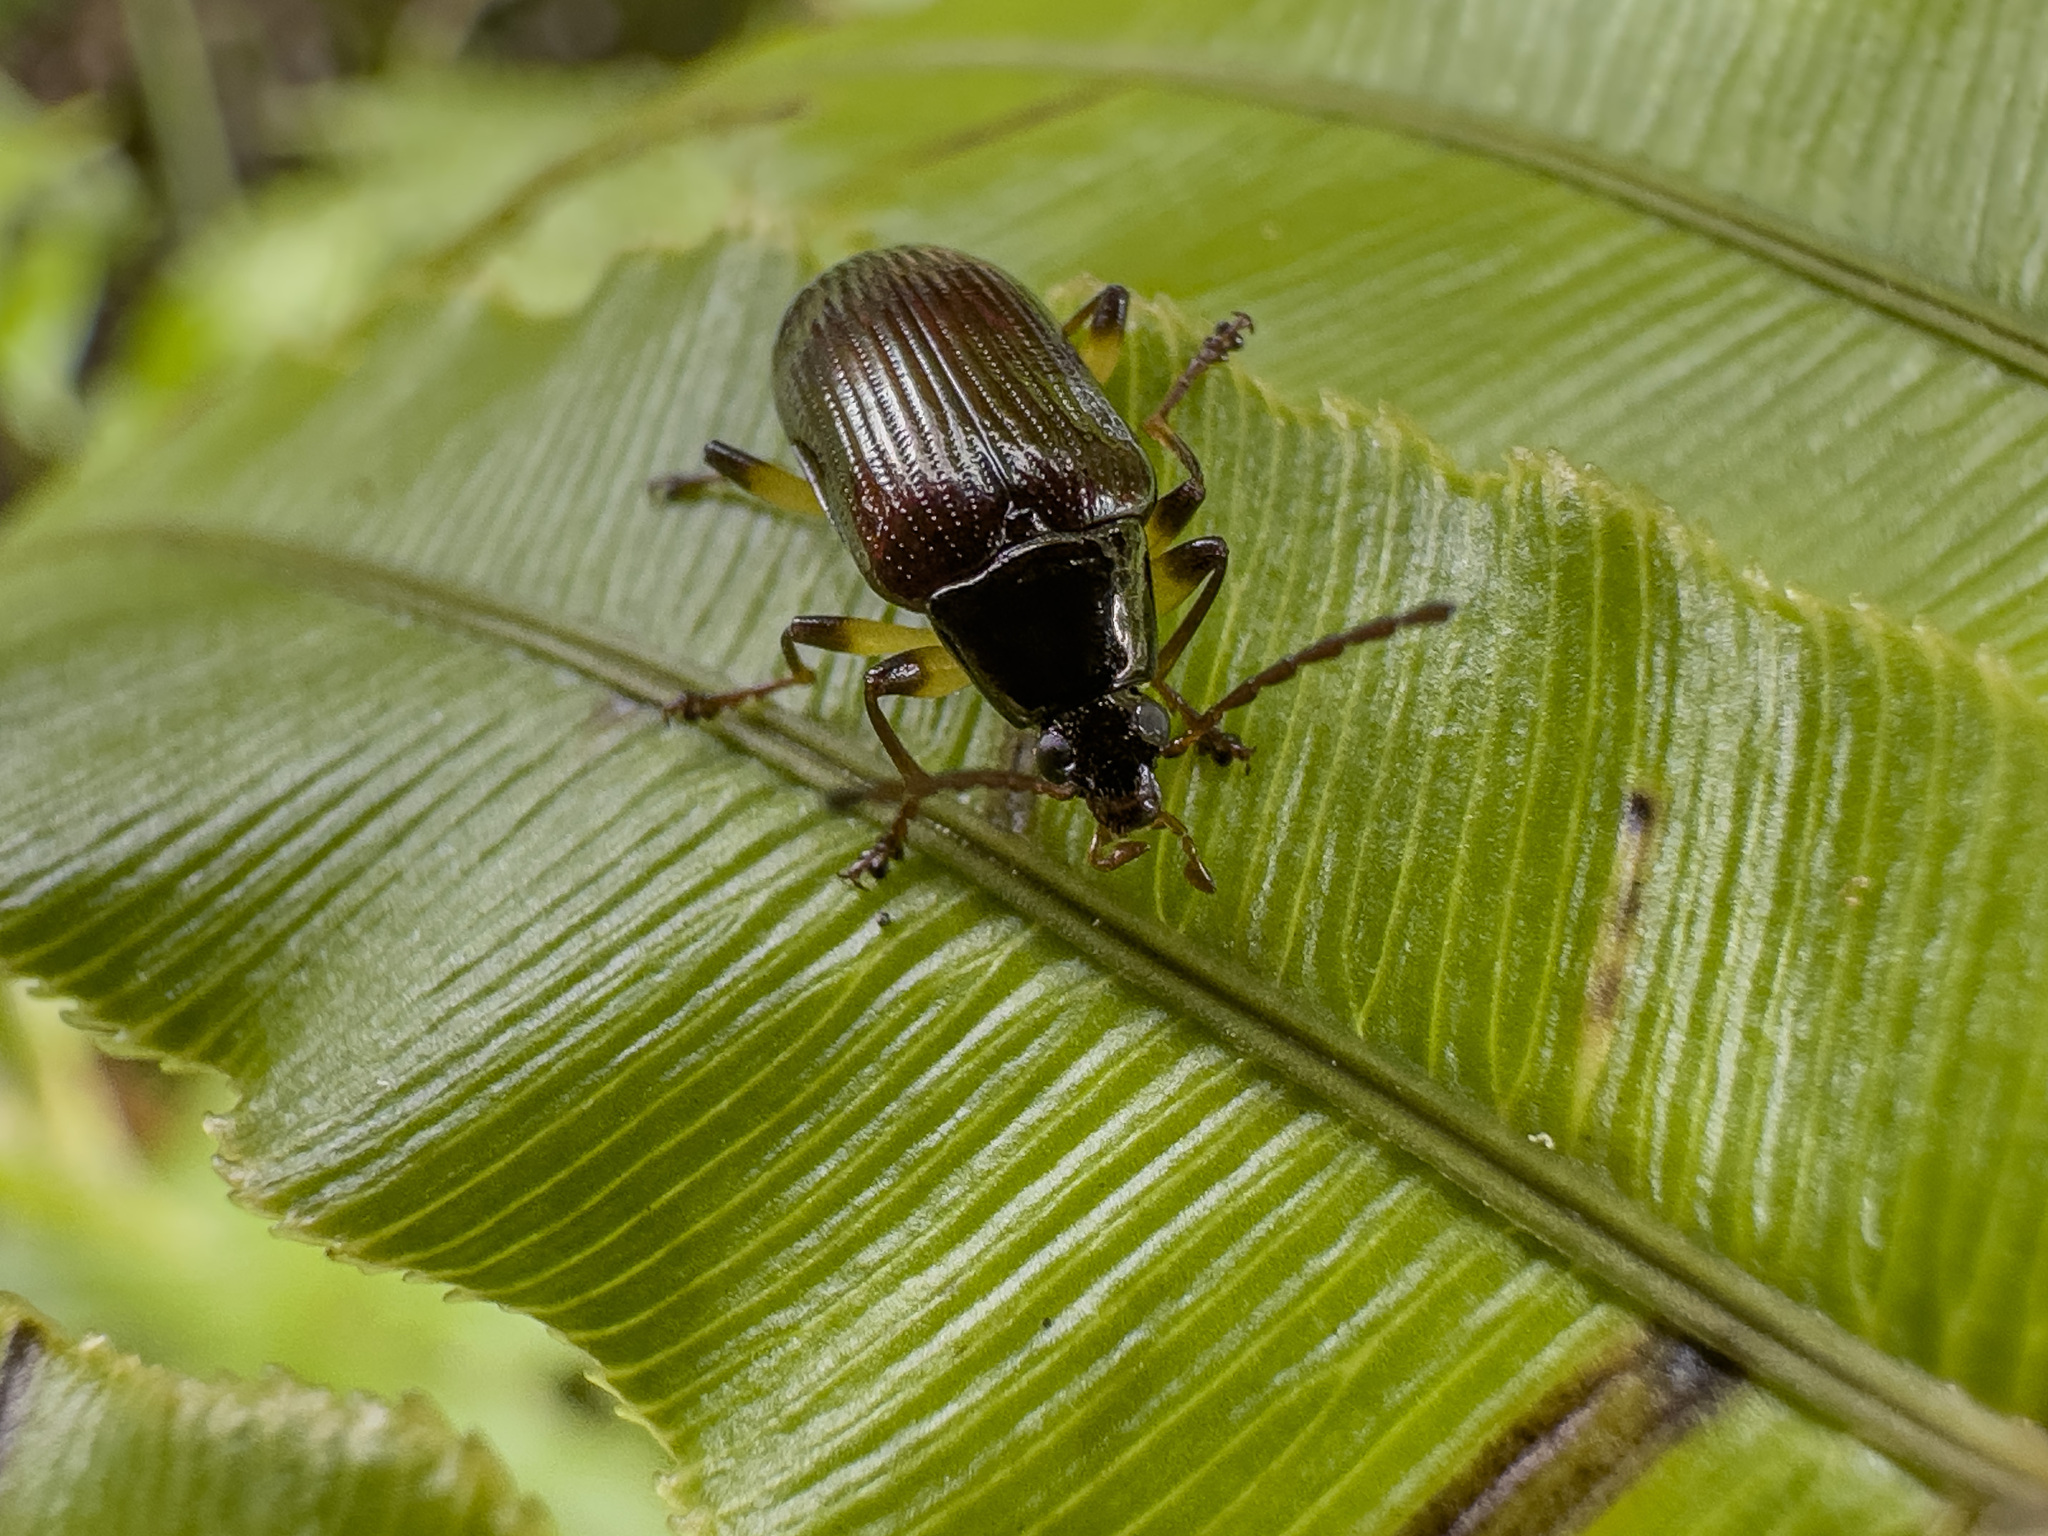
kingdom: Animalia
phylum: Arthropoda
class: Insecta
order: Coleoptera
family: Tenebrionidae
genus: Tanychilus
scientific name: Tanychilus
